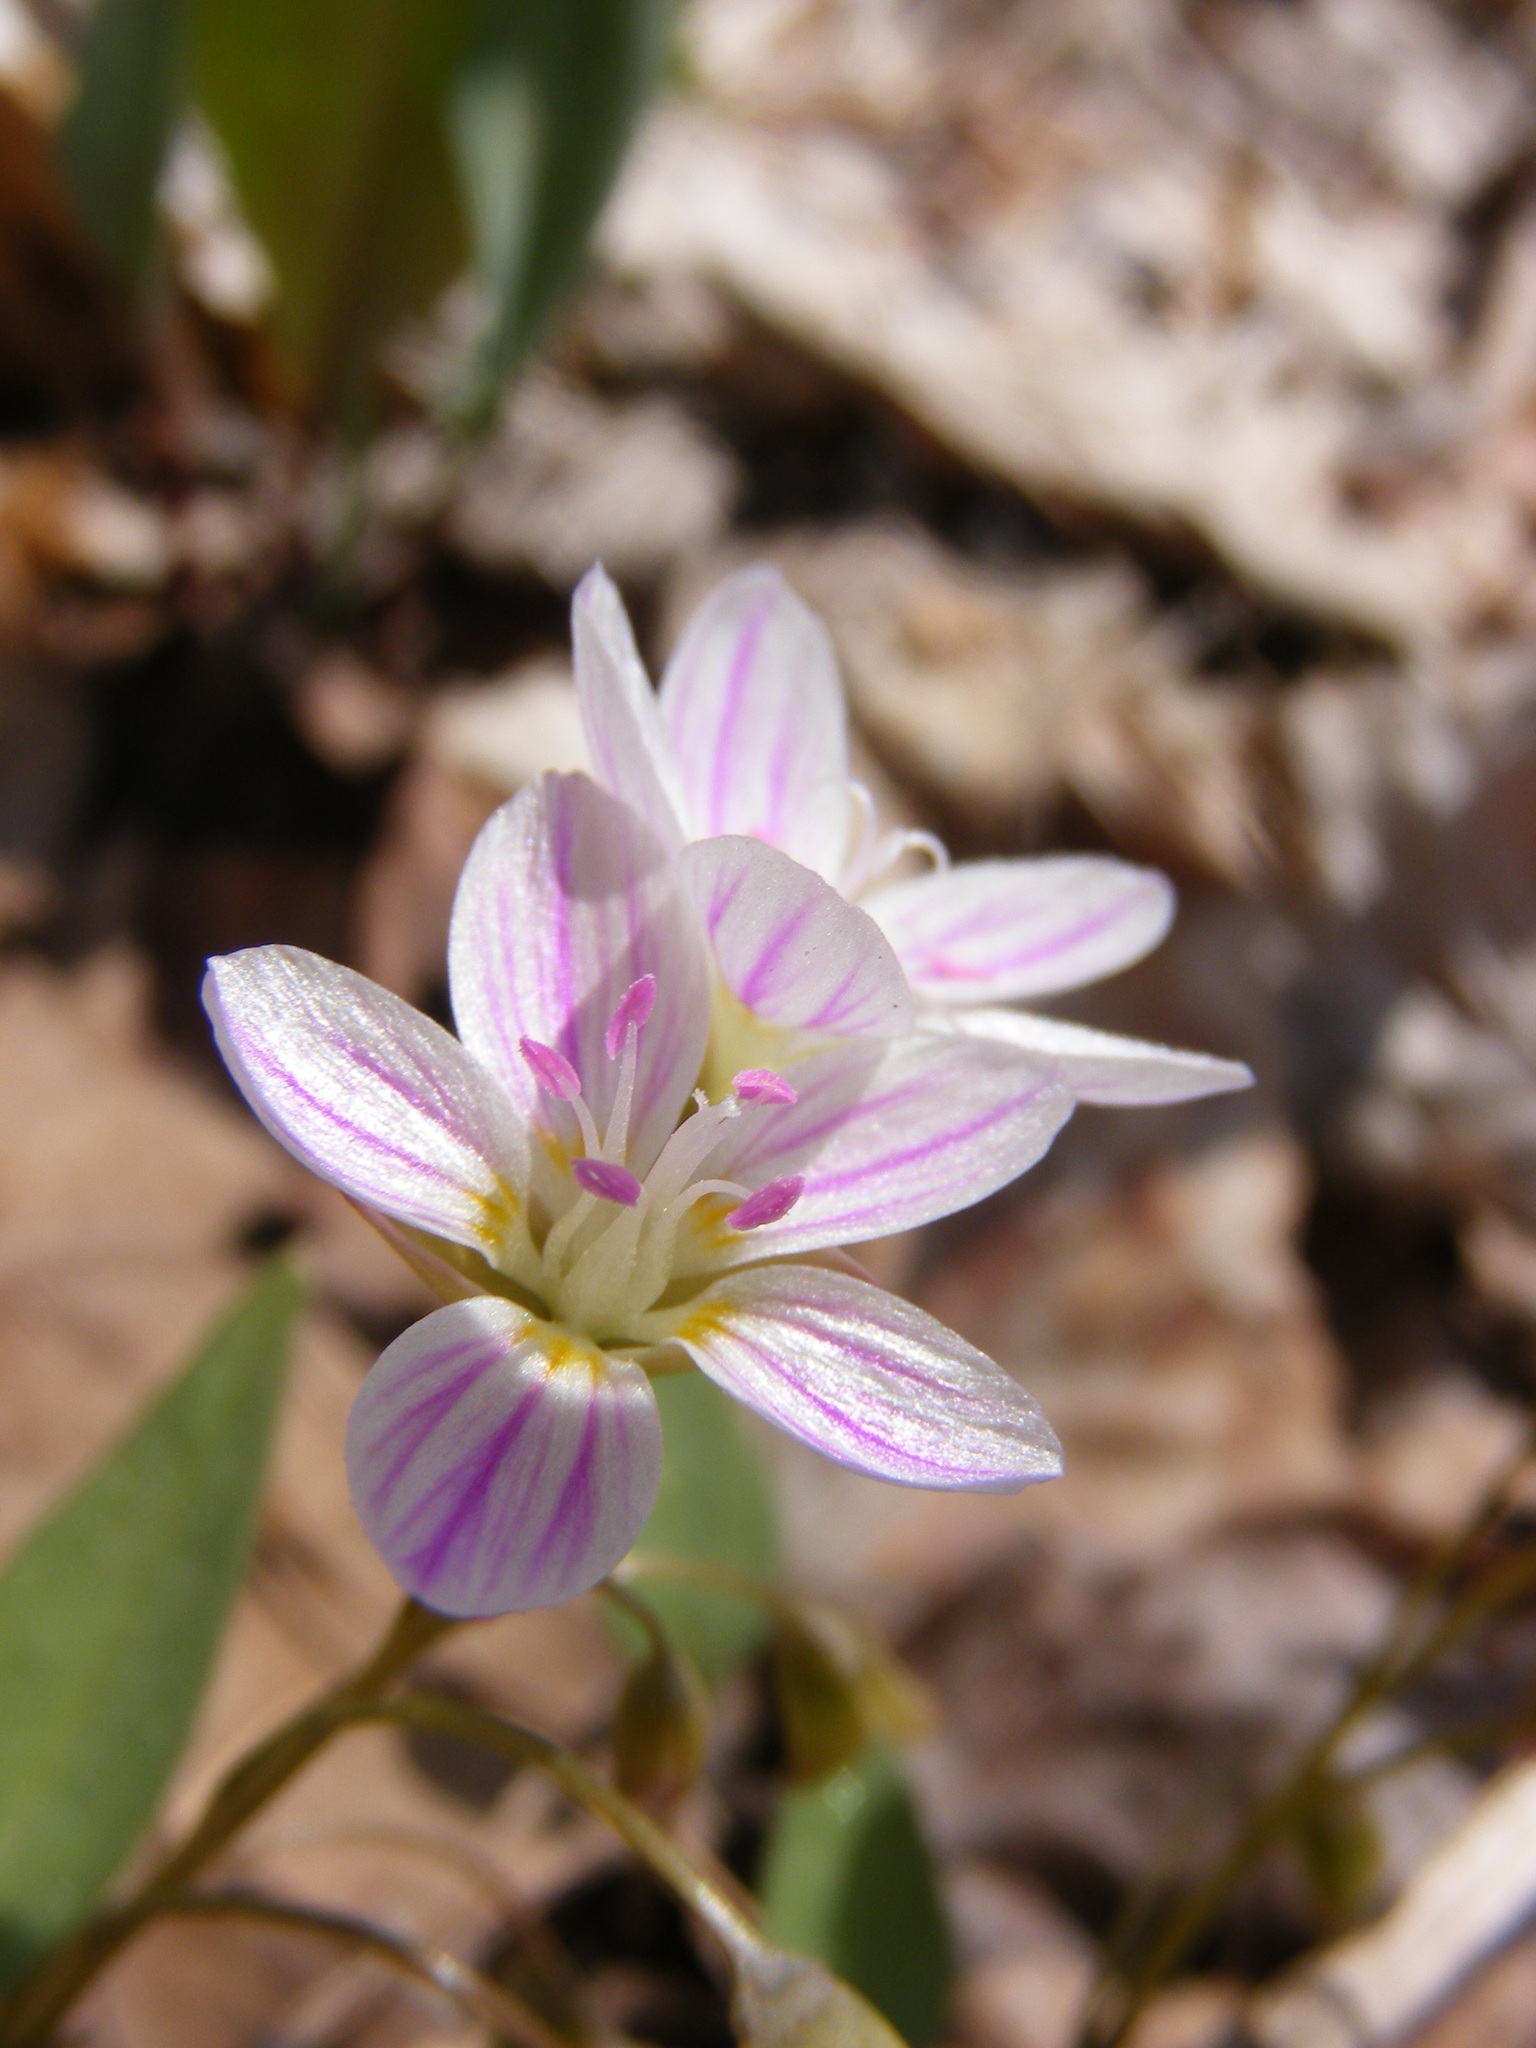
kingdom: Plantae
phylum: Tracheophyta
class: Magnoliopsida
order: Caryophyllales
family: Montiaceae
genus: Claytonia
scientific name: Claytonia caroliniana
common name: Carolina spring beauty
